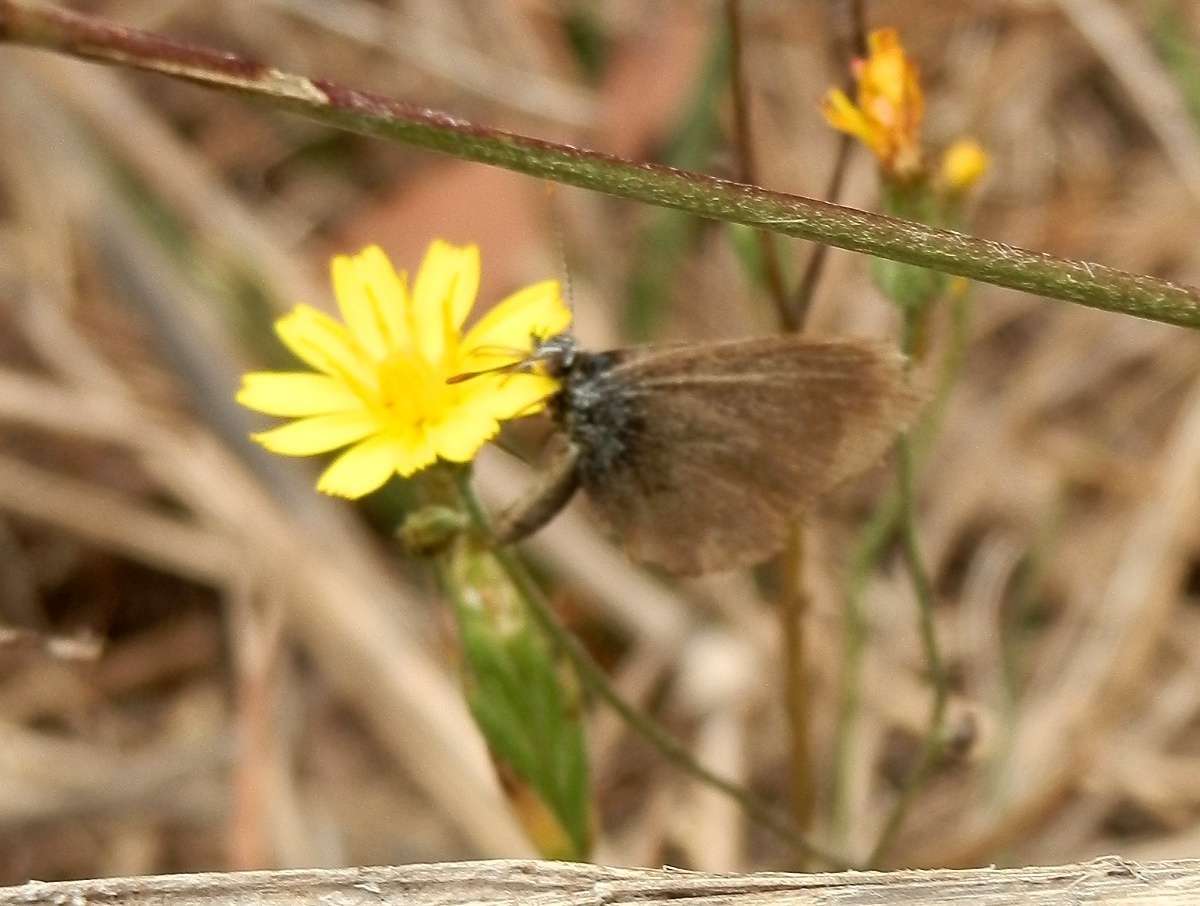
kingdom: Animalia
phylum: Arthropoda
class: Insecta
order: Lepidoptera
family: Lycaenidae
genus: Zizina
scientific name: Zizina labradus
